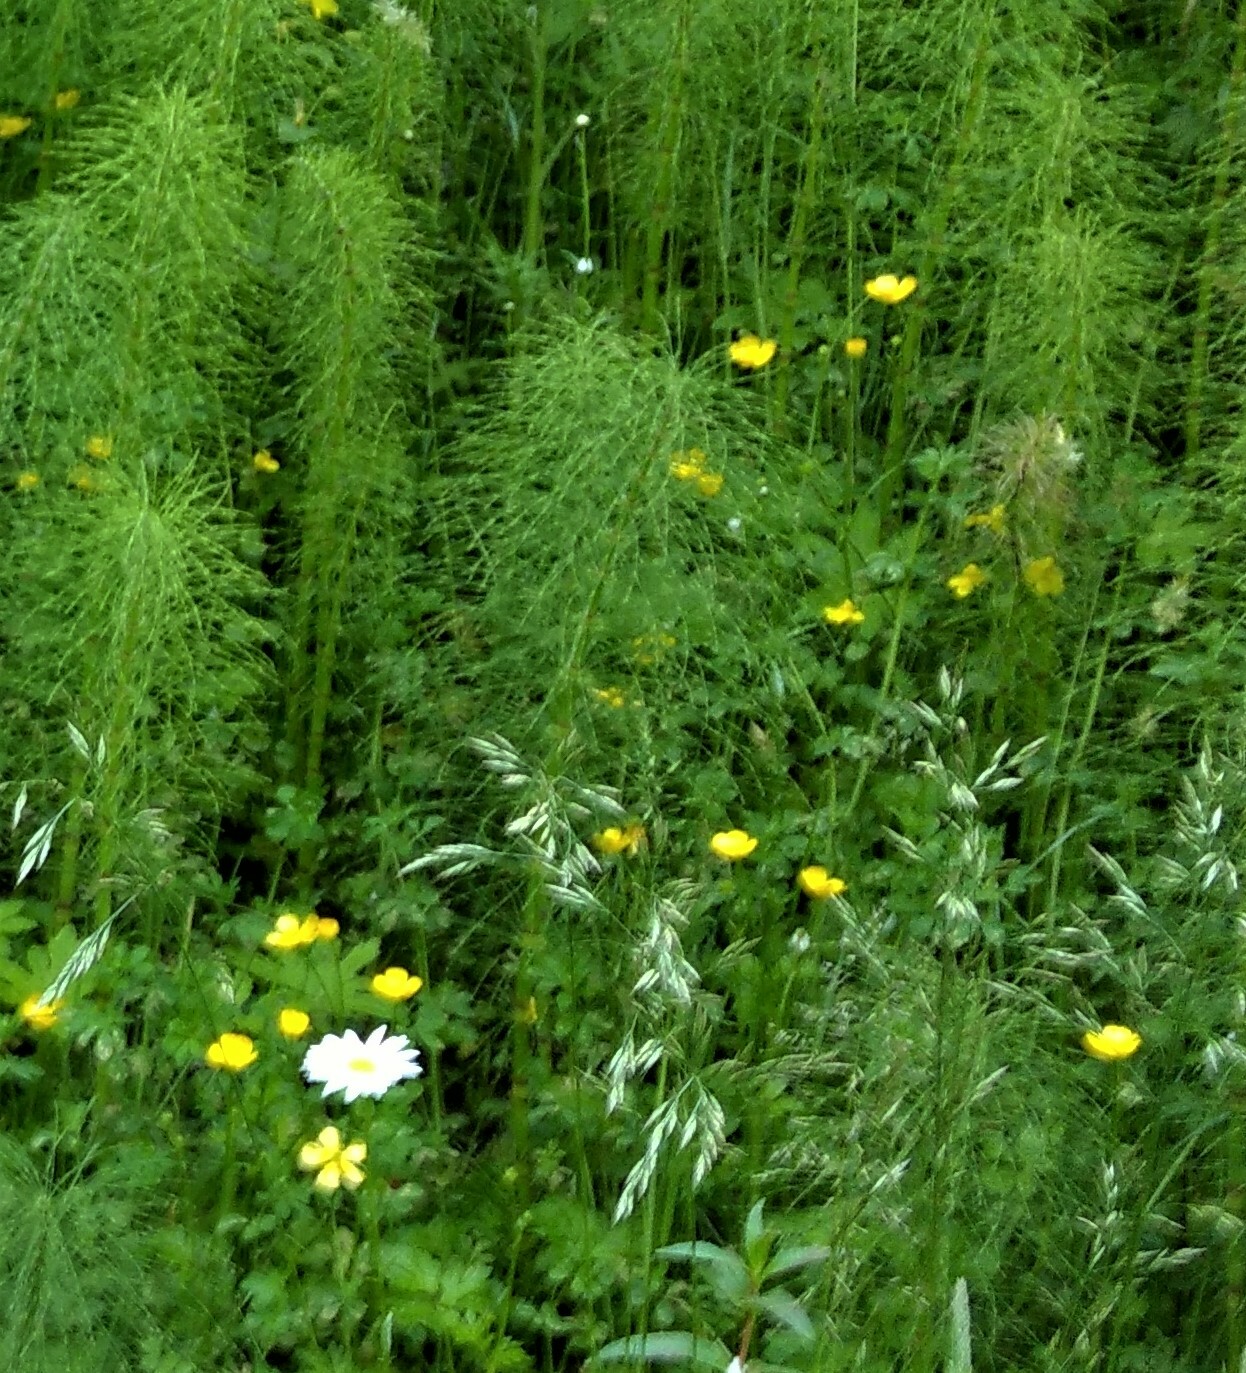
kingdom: Plantae
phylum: Tracheophyta
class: Magnoliopsida
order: Ranunculales
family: Ranunculaceae
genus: Ranunculus
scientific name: Ranunculus repens
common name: Creeping buttercup
